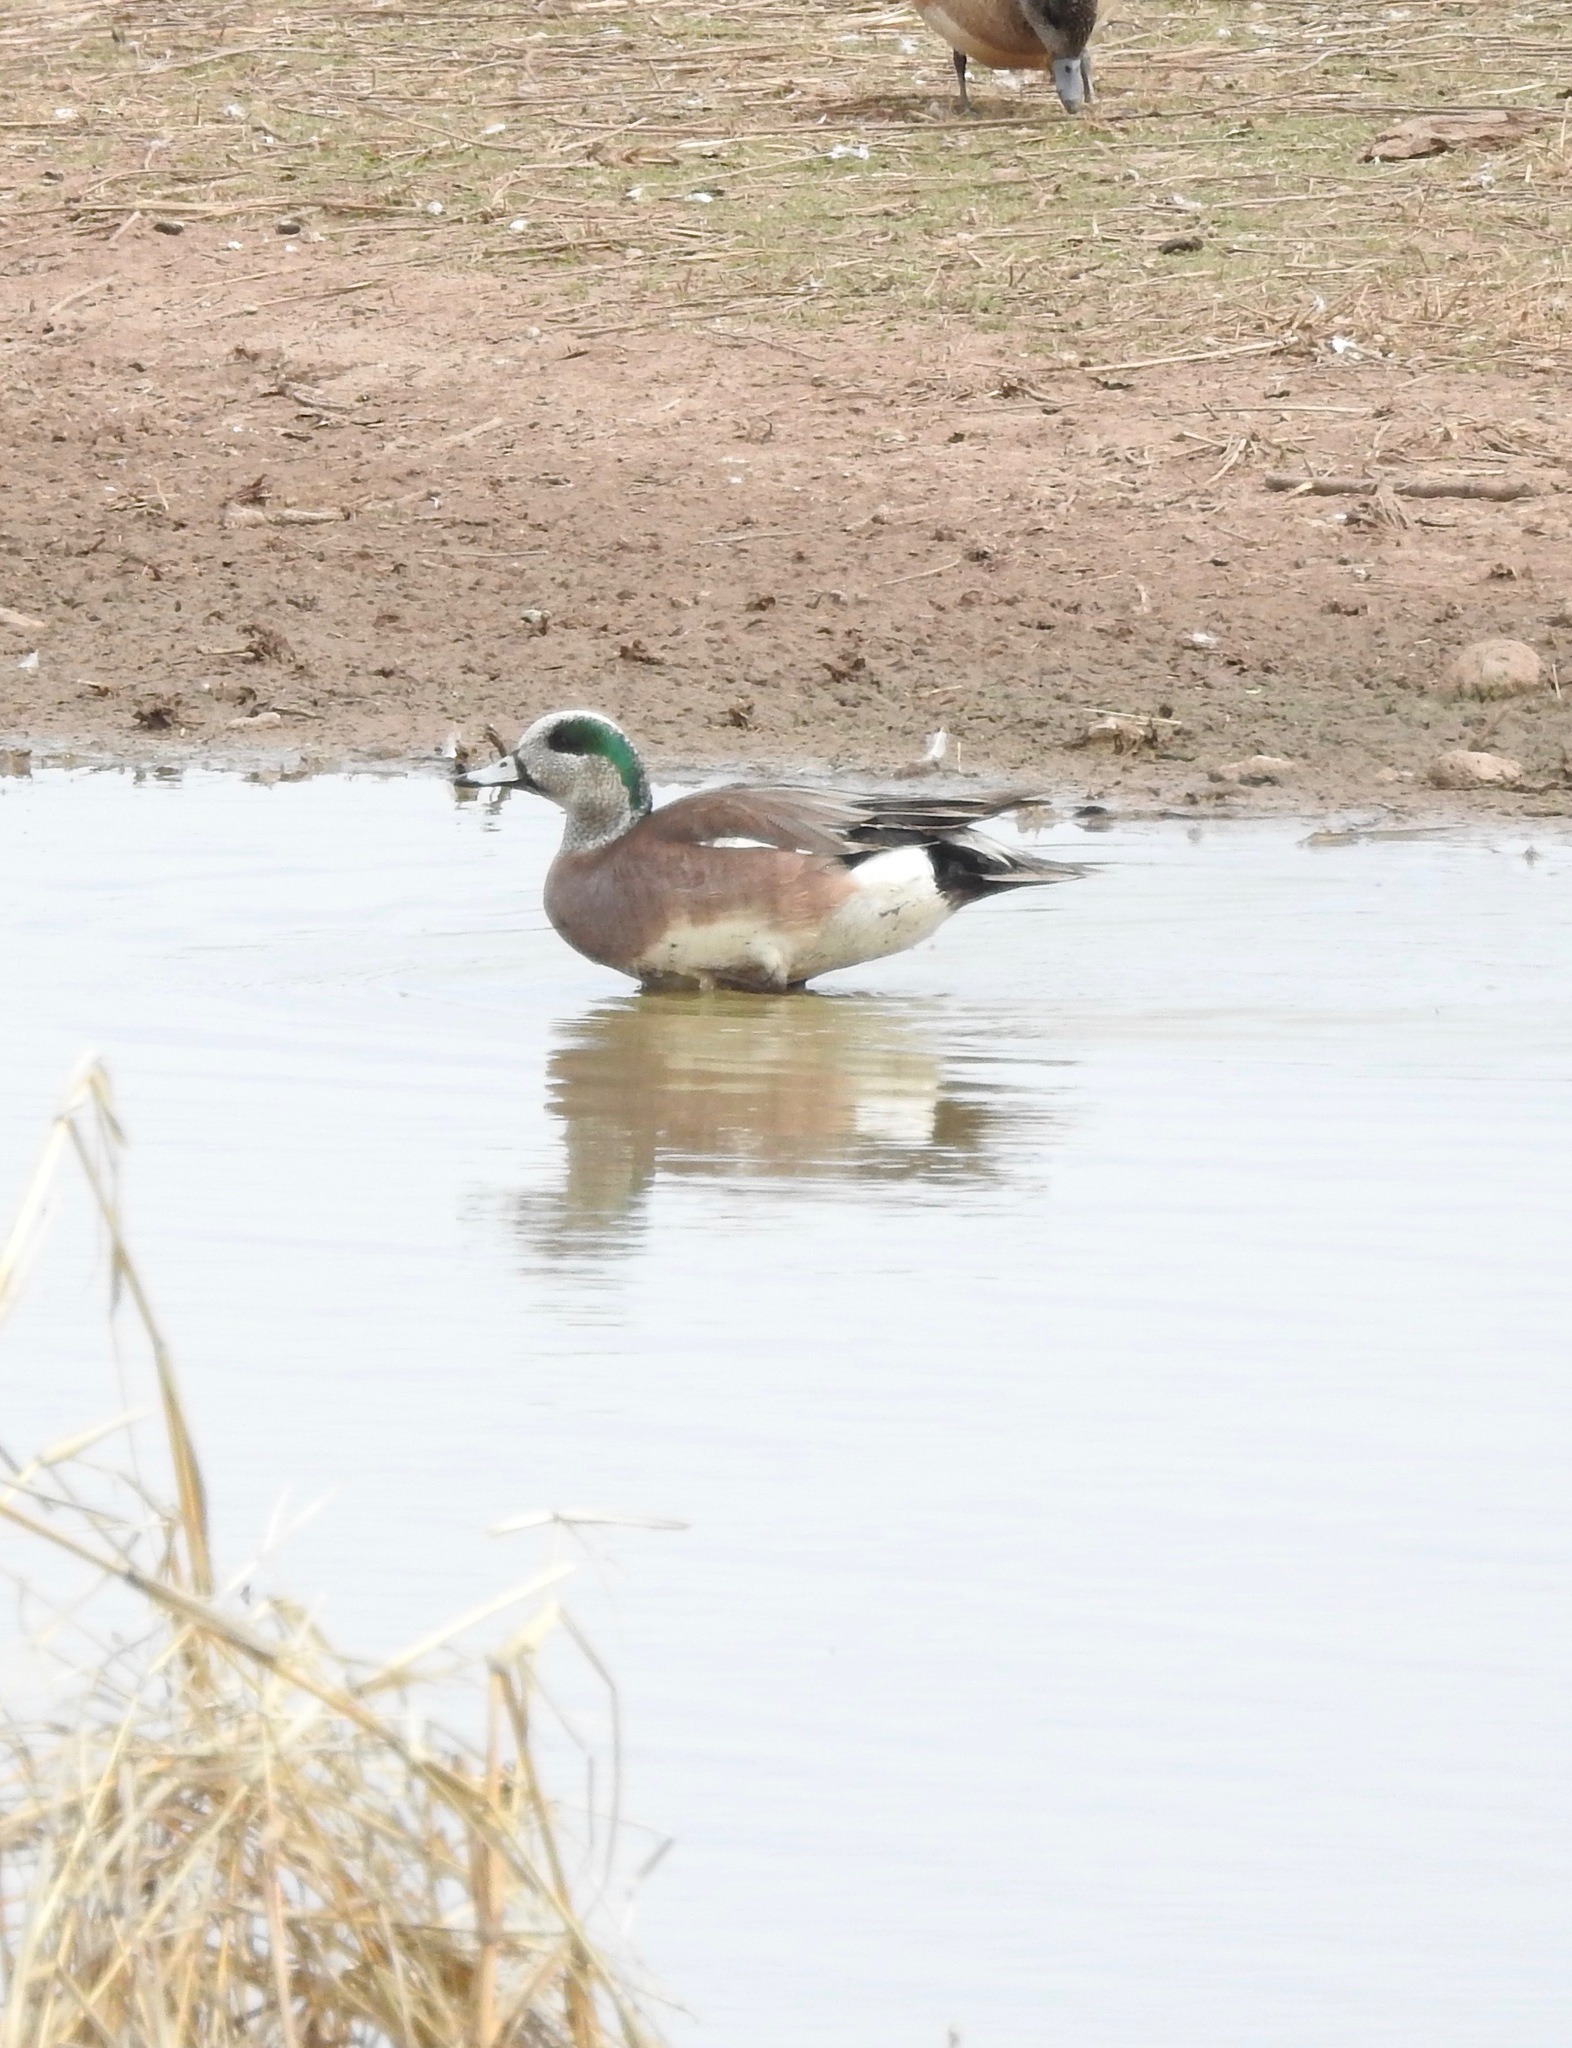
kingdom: Animalia
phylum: Chordata
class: Aves
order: Anseriformes
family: Anatidae
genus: Mareca
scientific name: Mareca americana
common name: American wigeon
